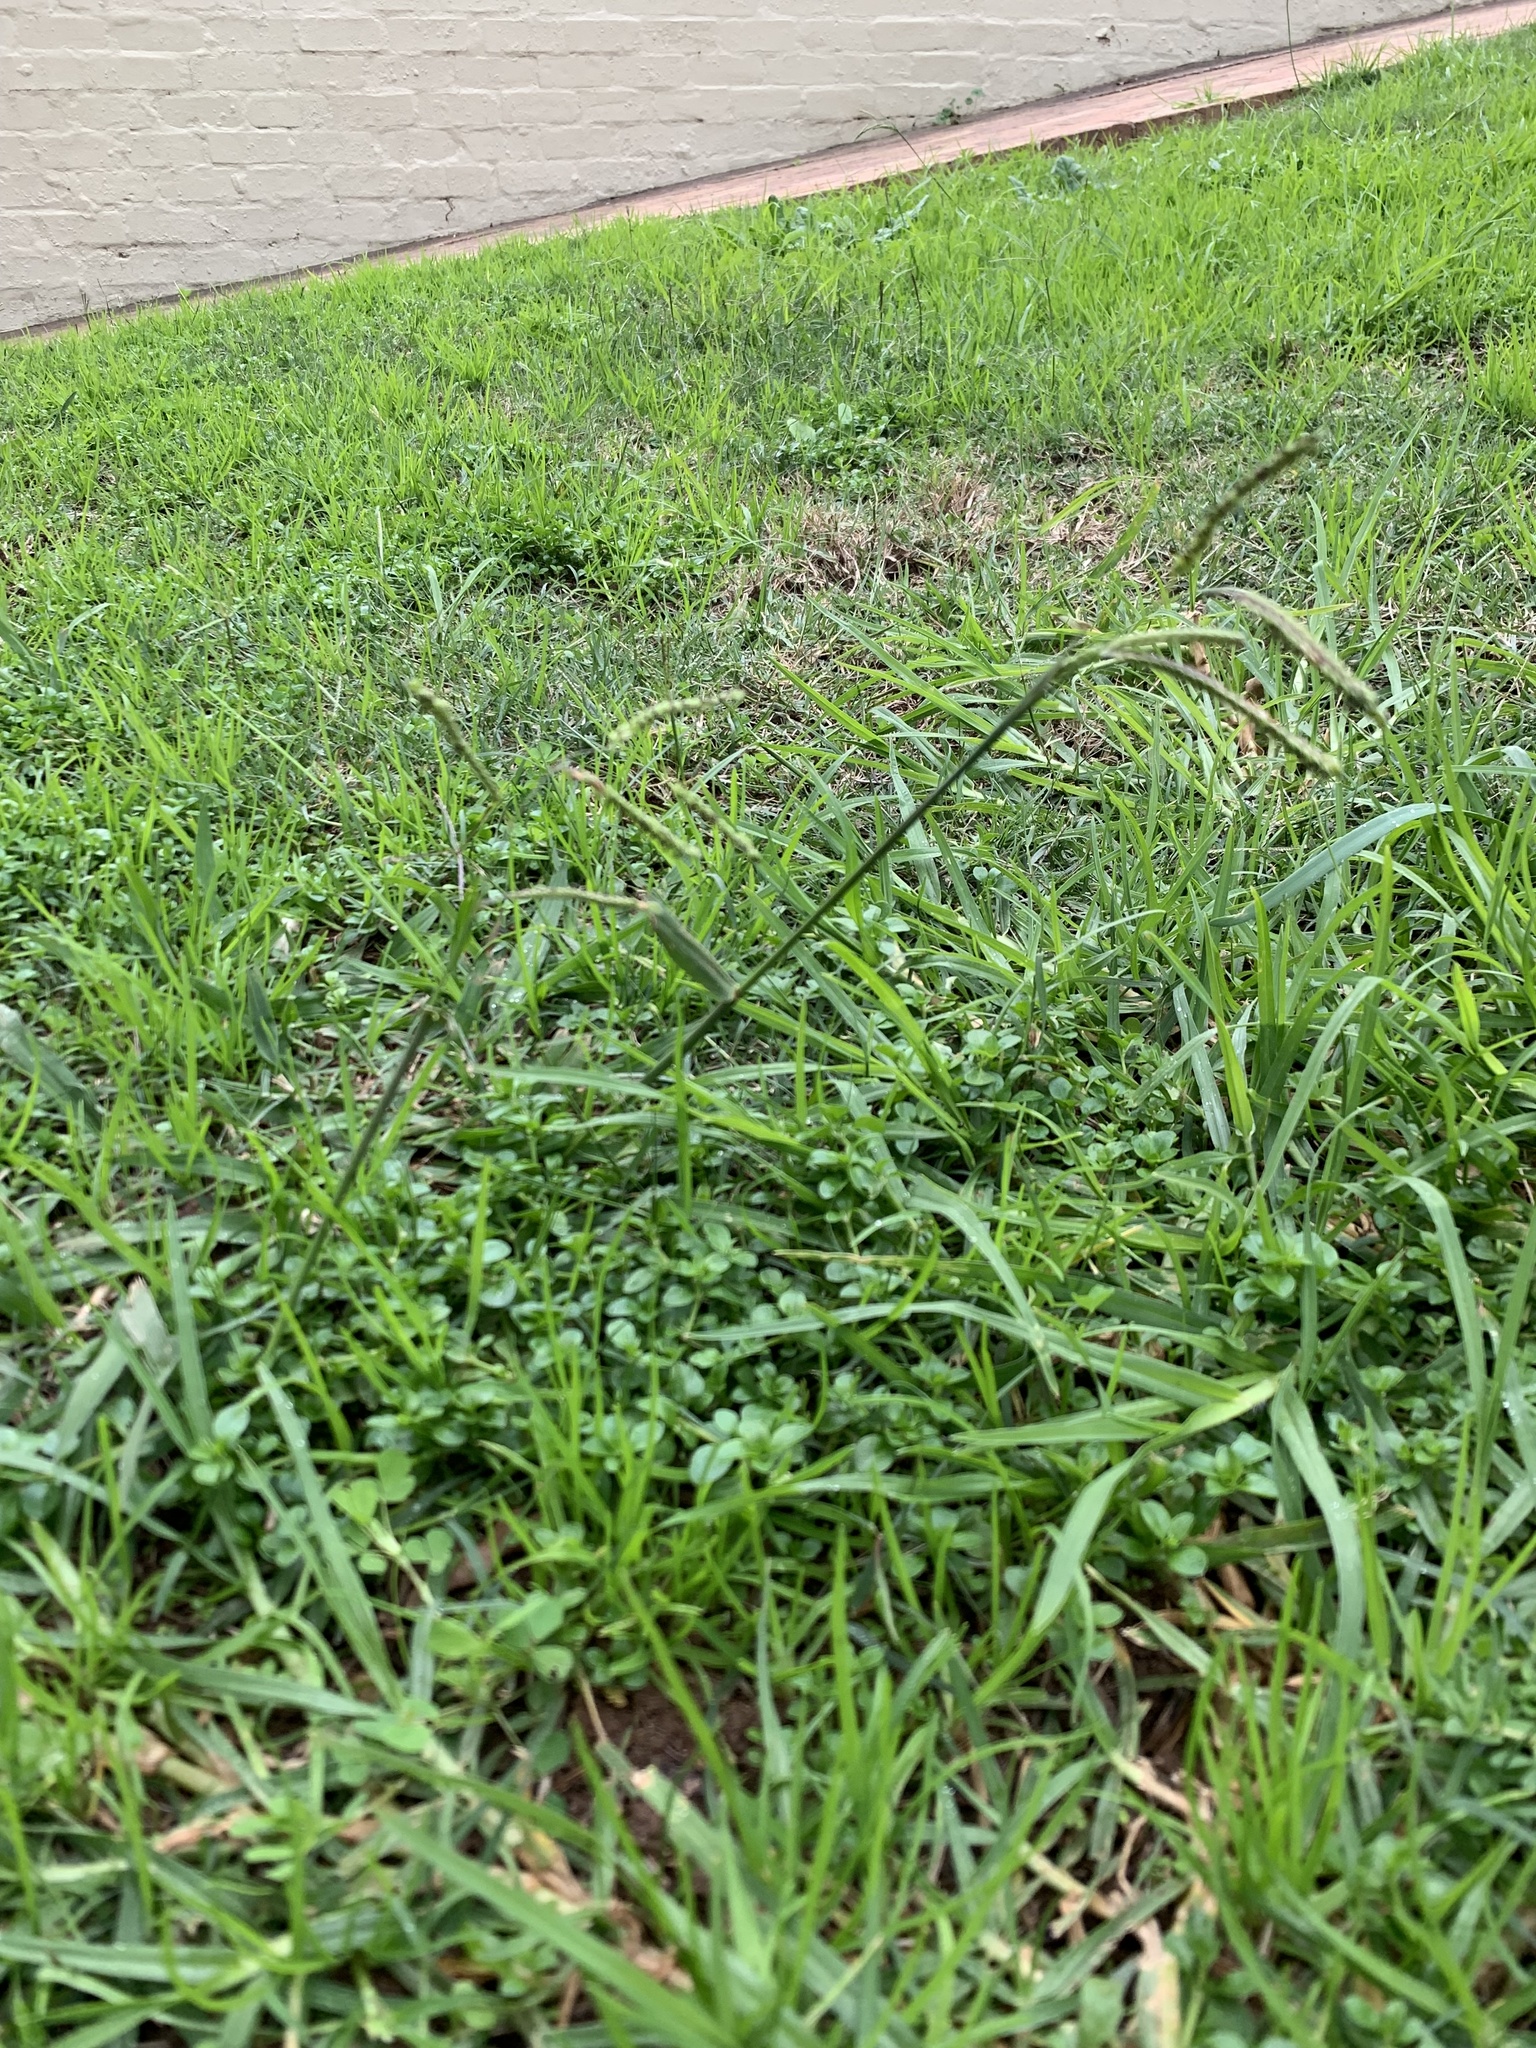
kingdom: Plantae
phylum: Tracheophyta
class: Liliopsida
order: Poales
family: Poaceae
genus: Paspalum
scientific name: Paspalum dilatatum
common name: Dallisgrass
